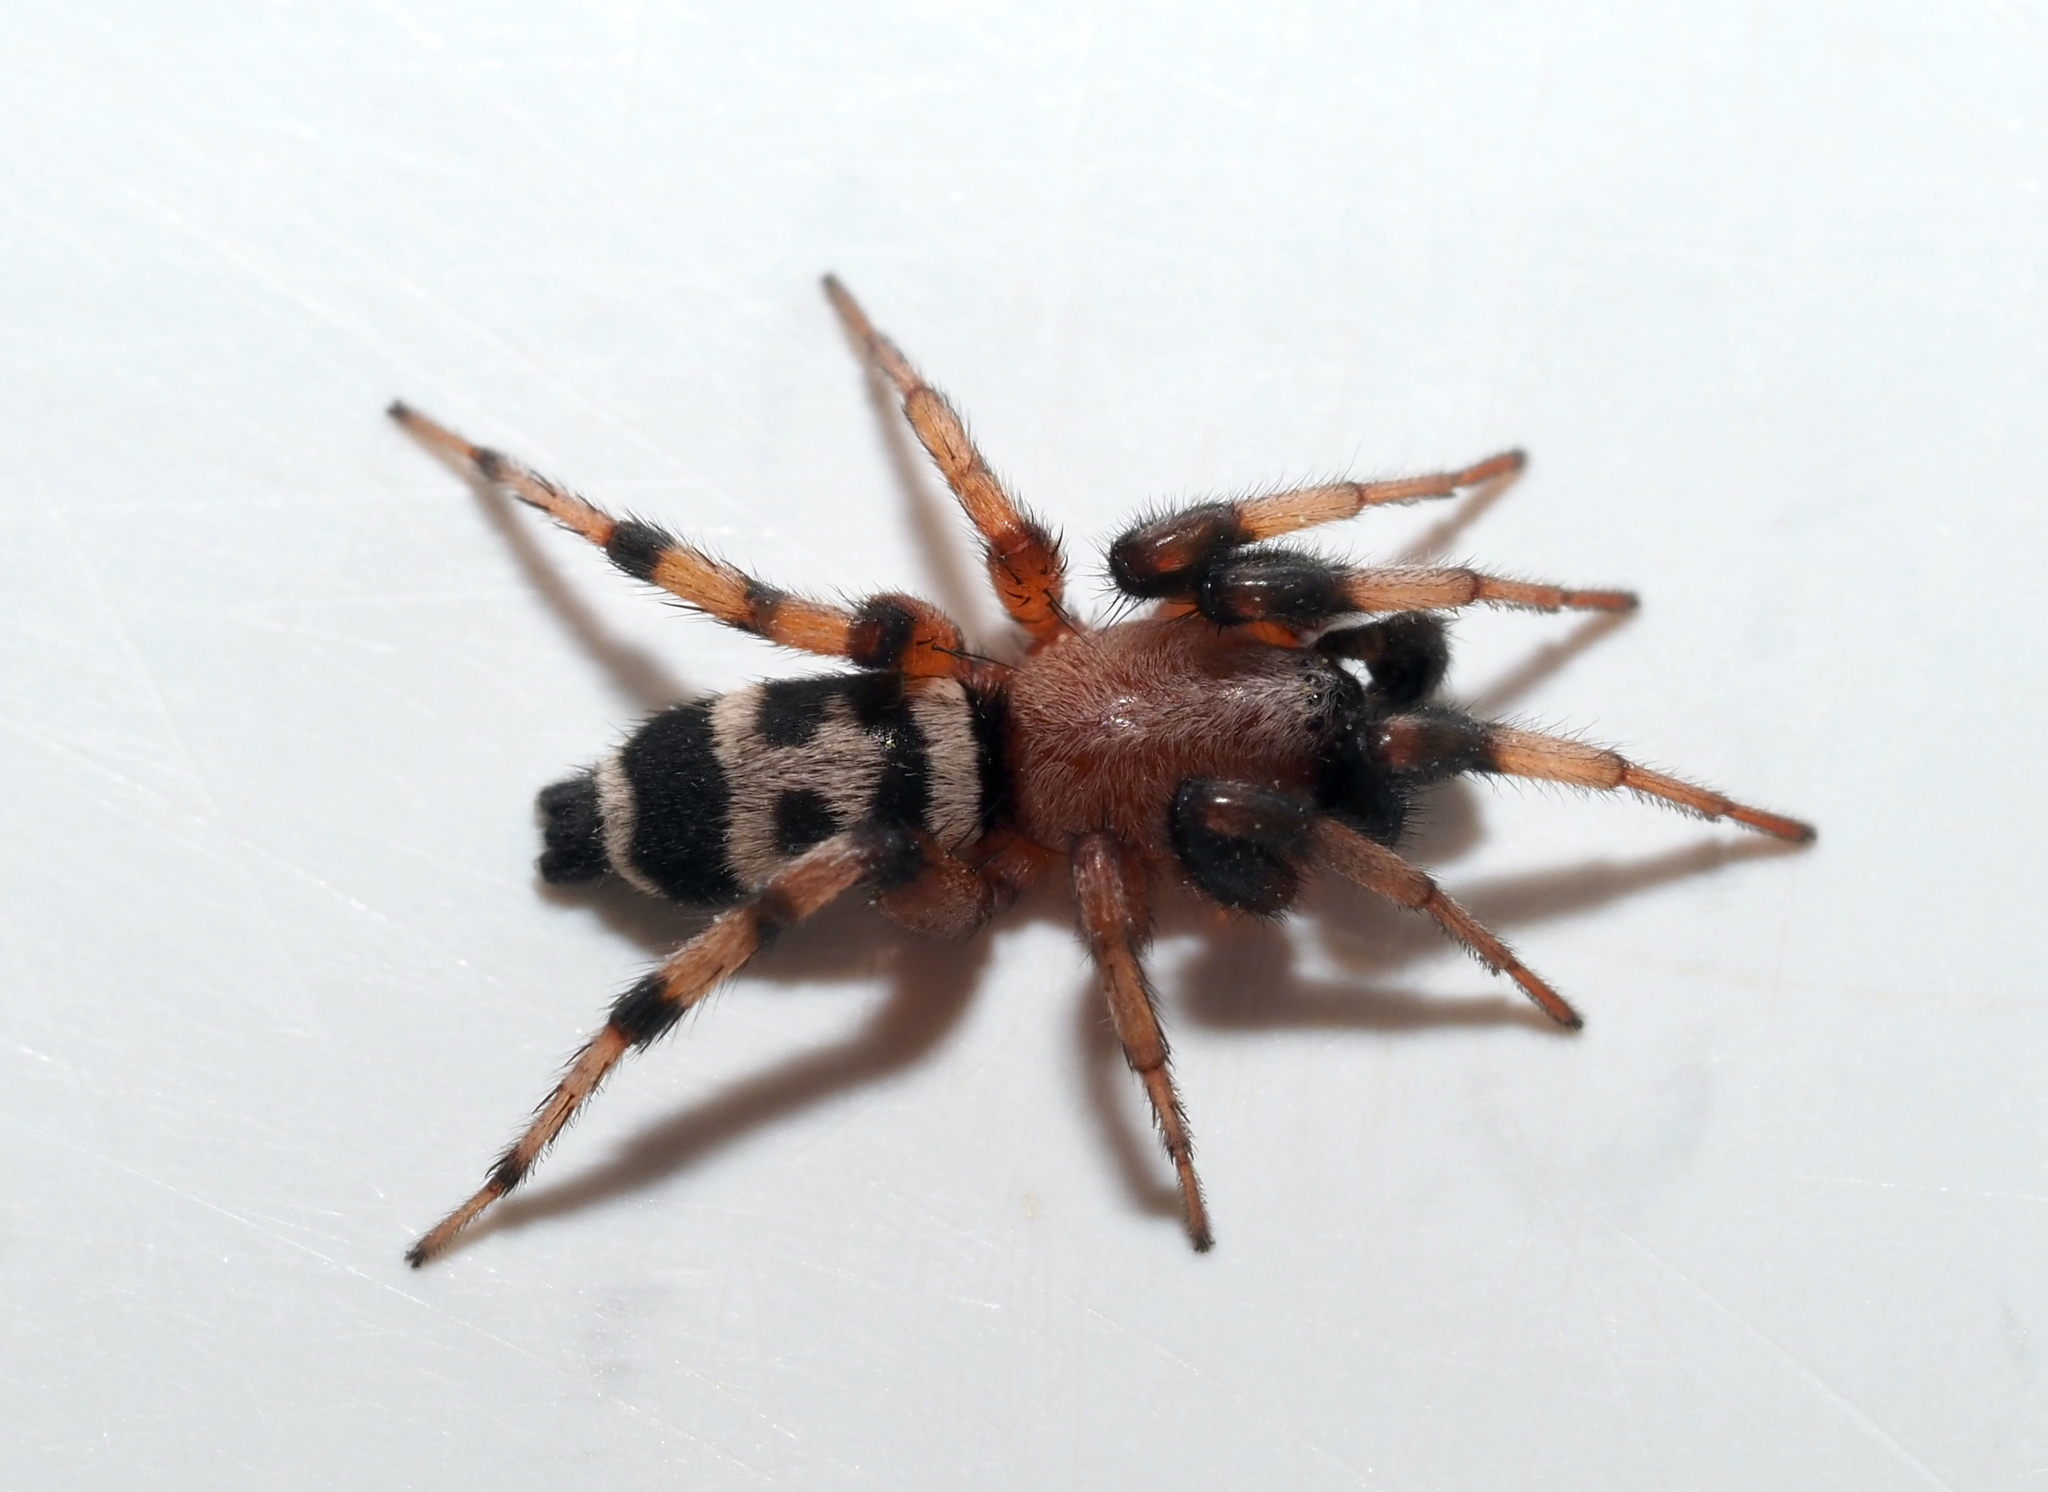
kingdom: Animalia
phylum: Arthropoda
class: Arachnida
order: Araneae
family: Gnaphosidae
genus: Sergiolus
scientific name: Sergiolus capulatus
